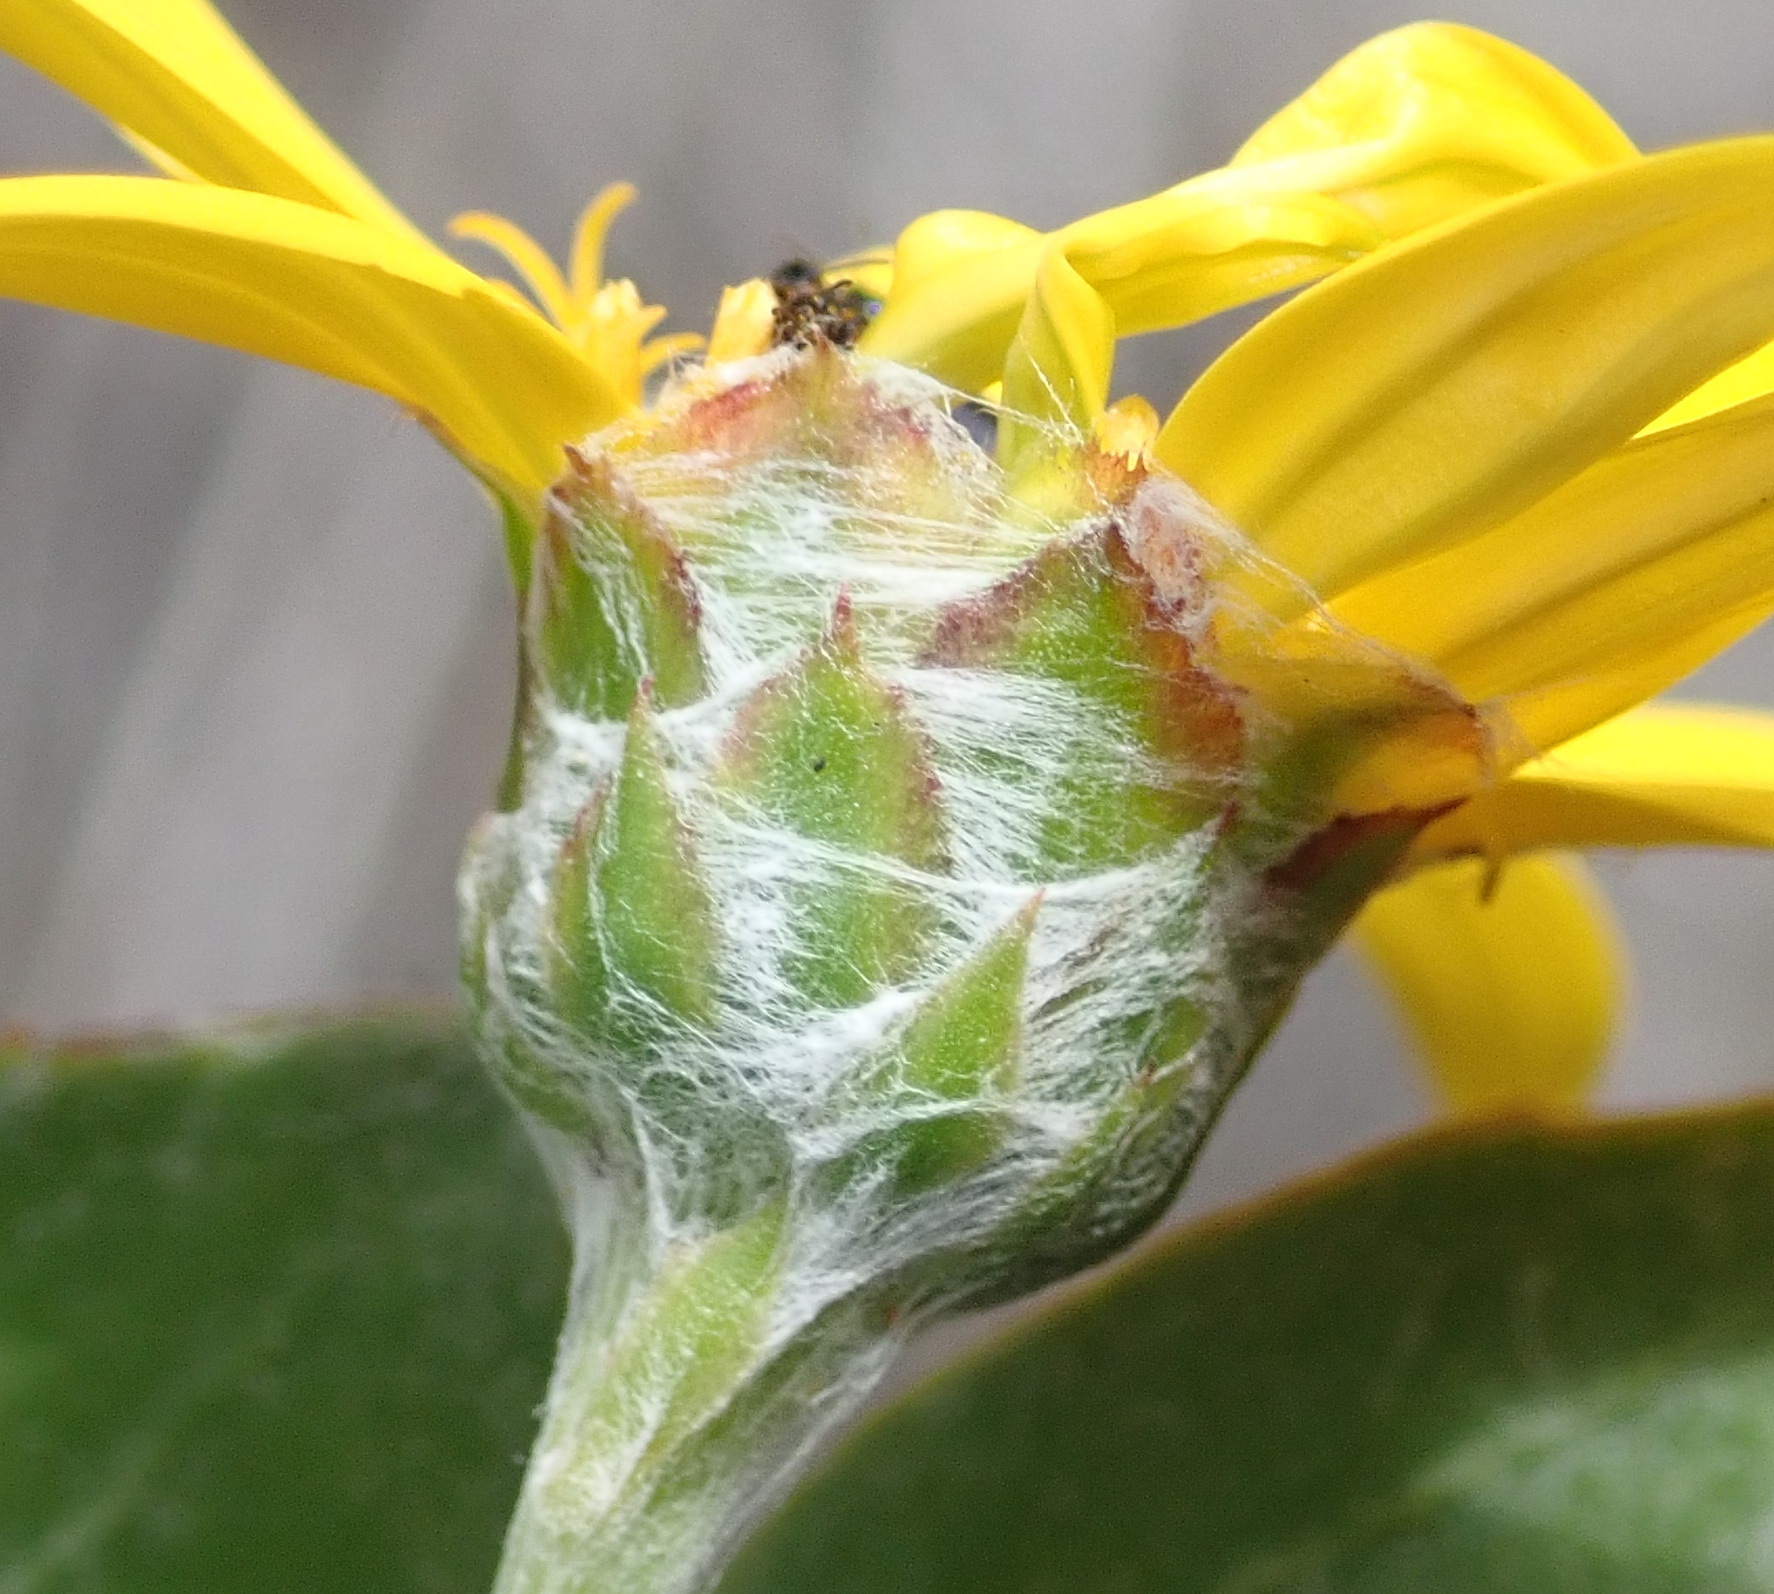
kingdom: Plantae
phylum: Tracheophyta
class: Magnoliopsida
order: Asterales
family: Asteraceae
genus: Osteospermum
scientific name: Osteospermum moniliferum
